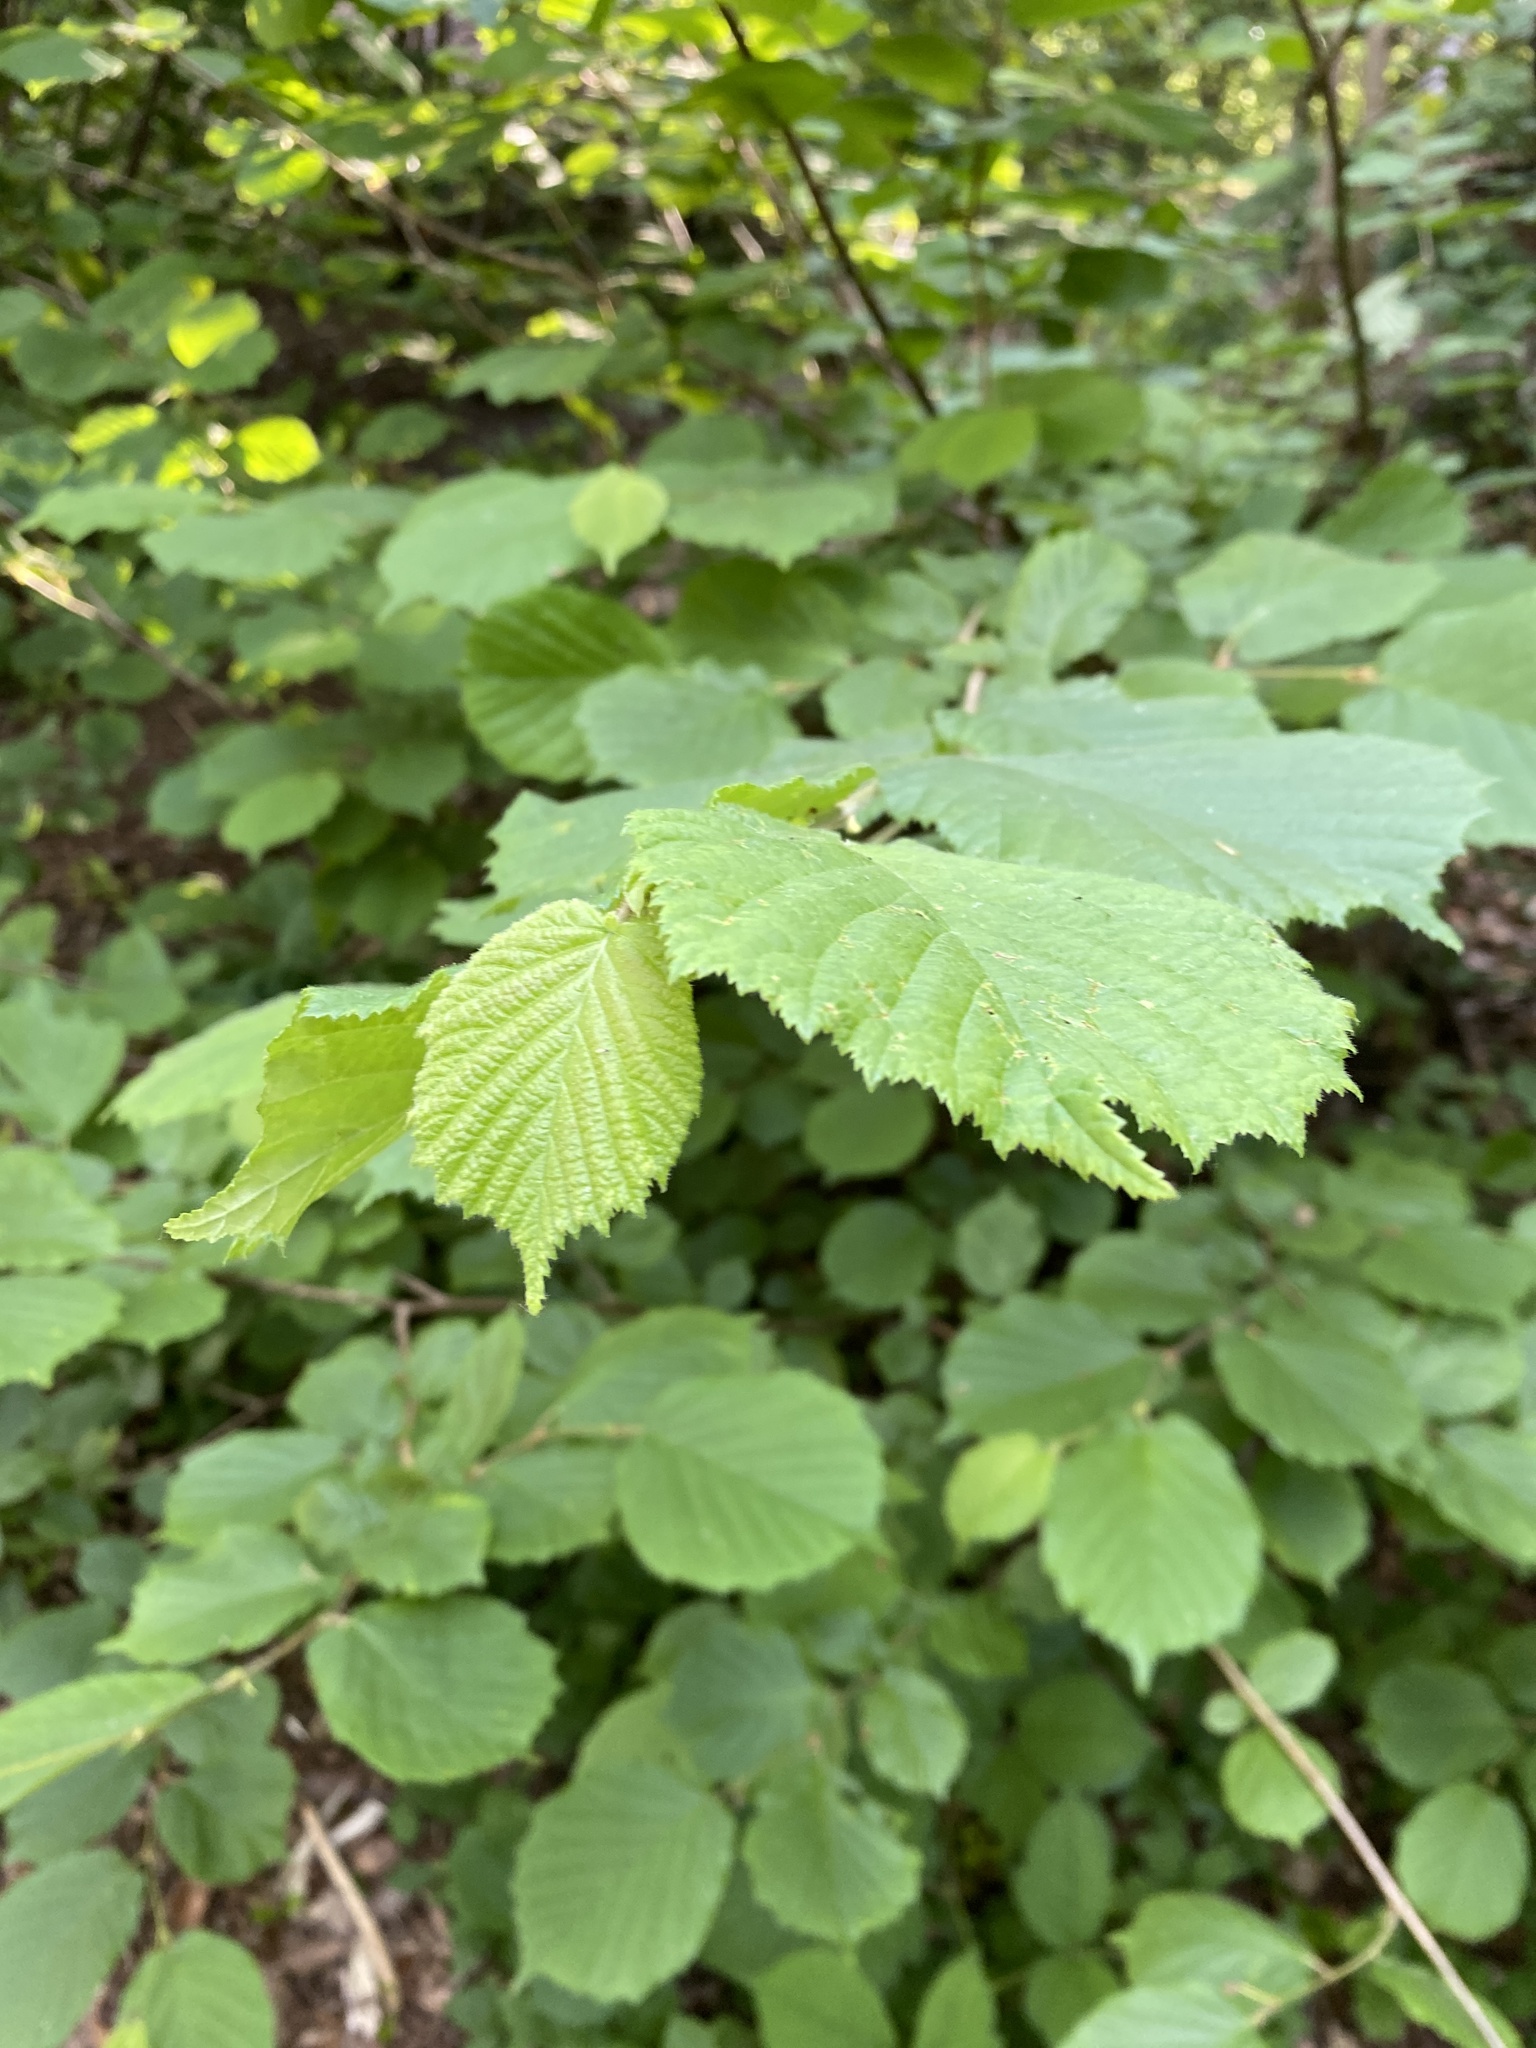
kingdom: Plantae
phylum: Tracheophyta
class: Magnoliopsida
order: Fagales
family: Betulaceae
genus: Corylus
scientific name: Corylus avellana
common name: European hazel
